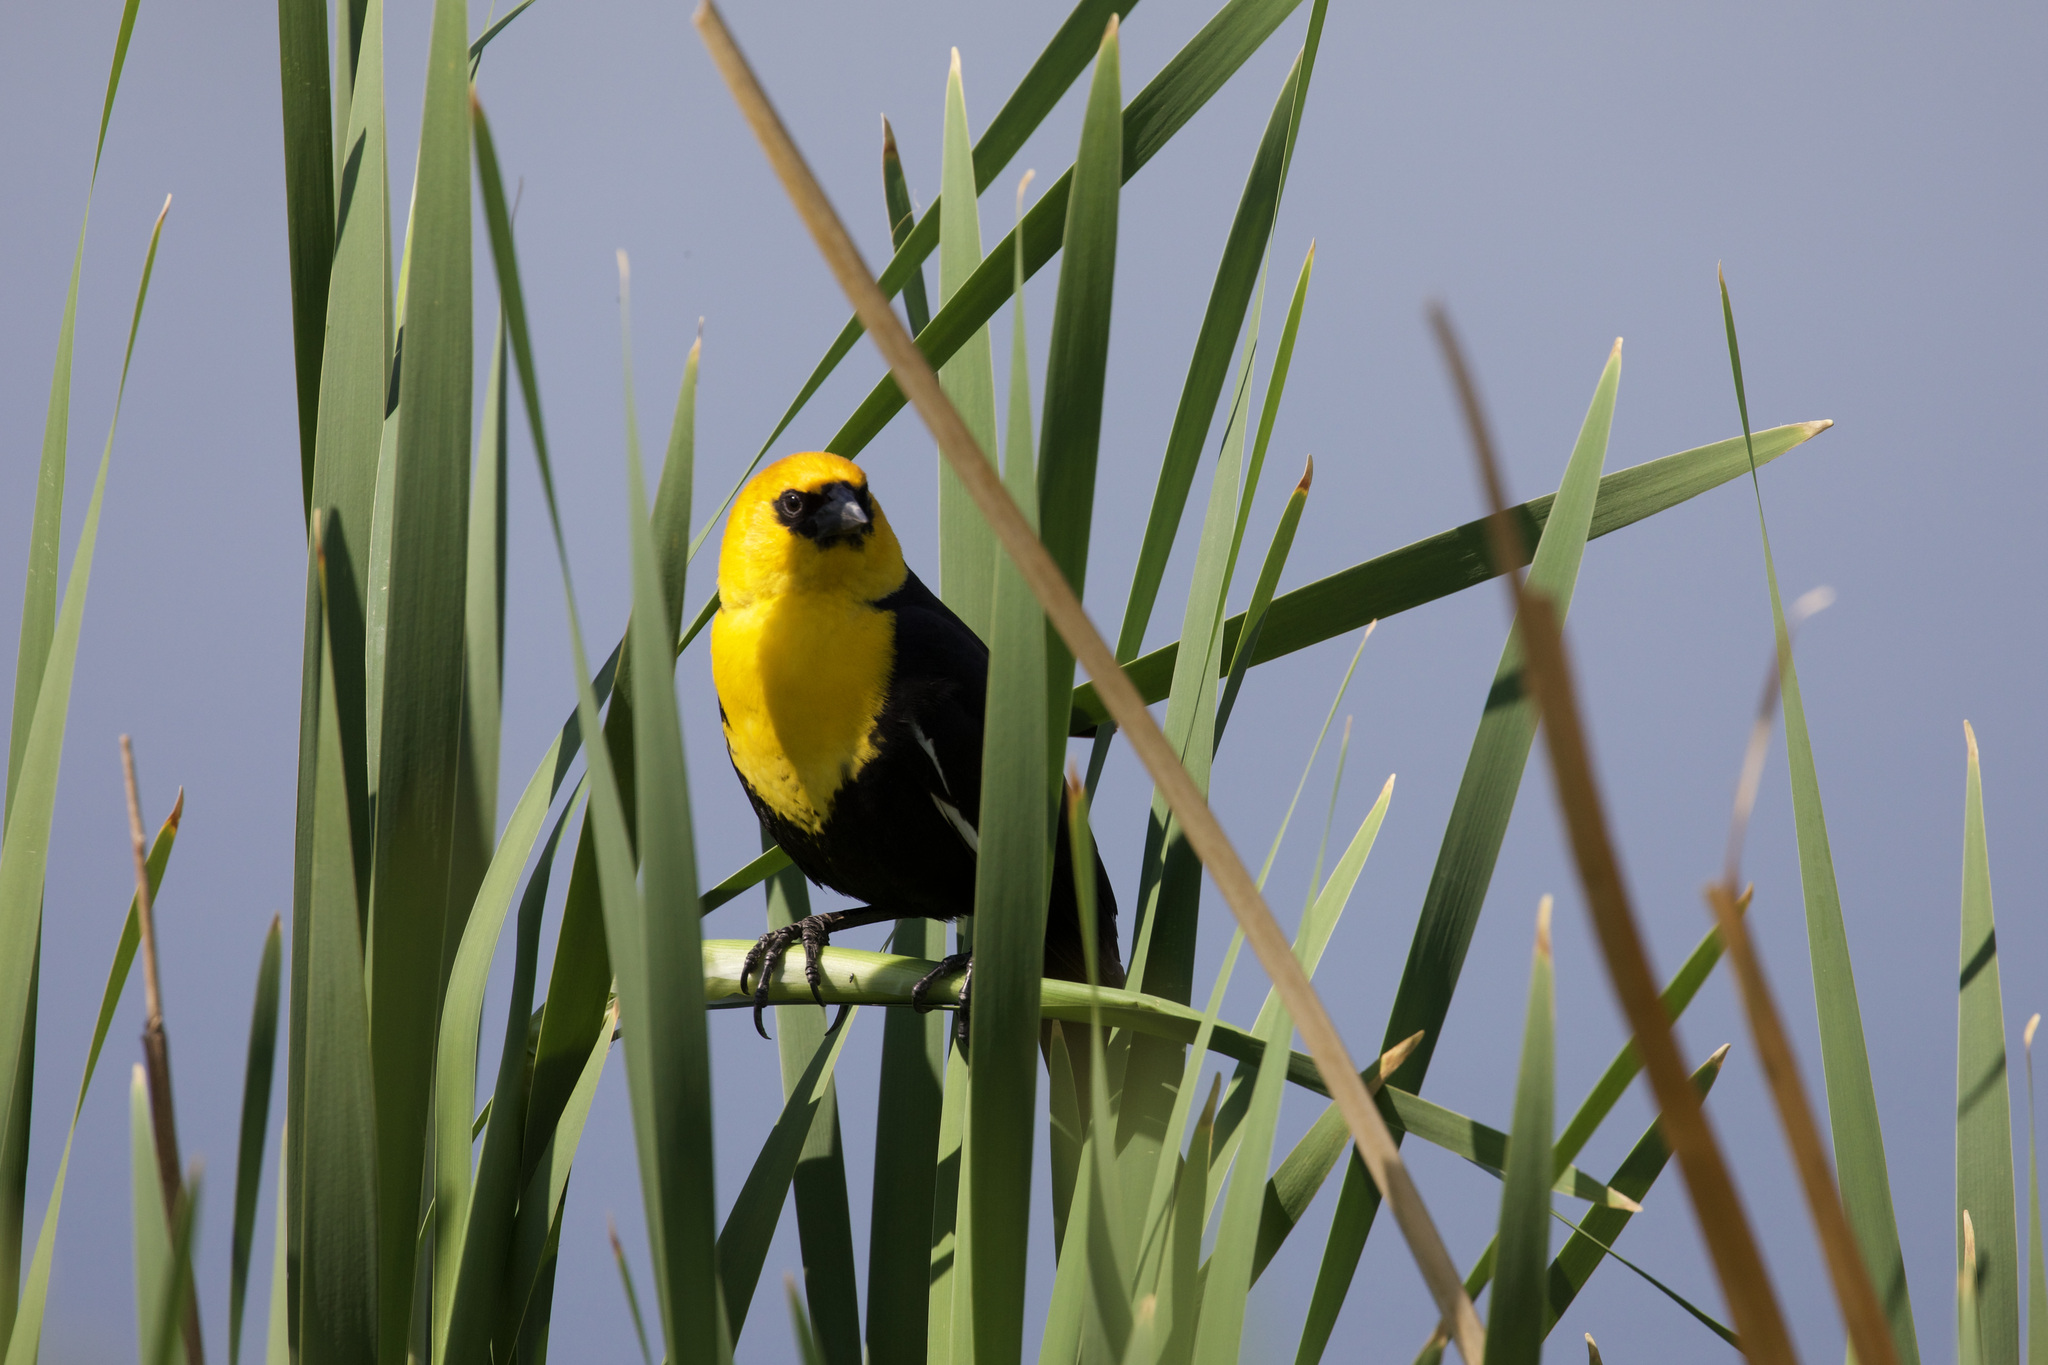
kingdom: Animalia
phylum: Chordata
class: Aves
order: Passeriformes
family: Icteridae
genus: Xanthocephalus
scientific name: Xanthocephalus xanthocephalus
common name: Yellow-headed blackbird
